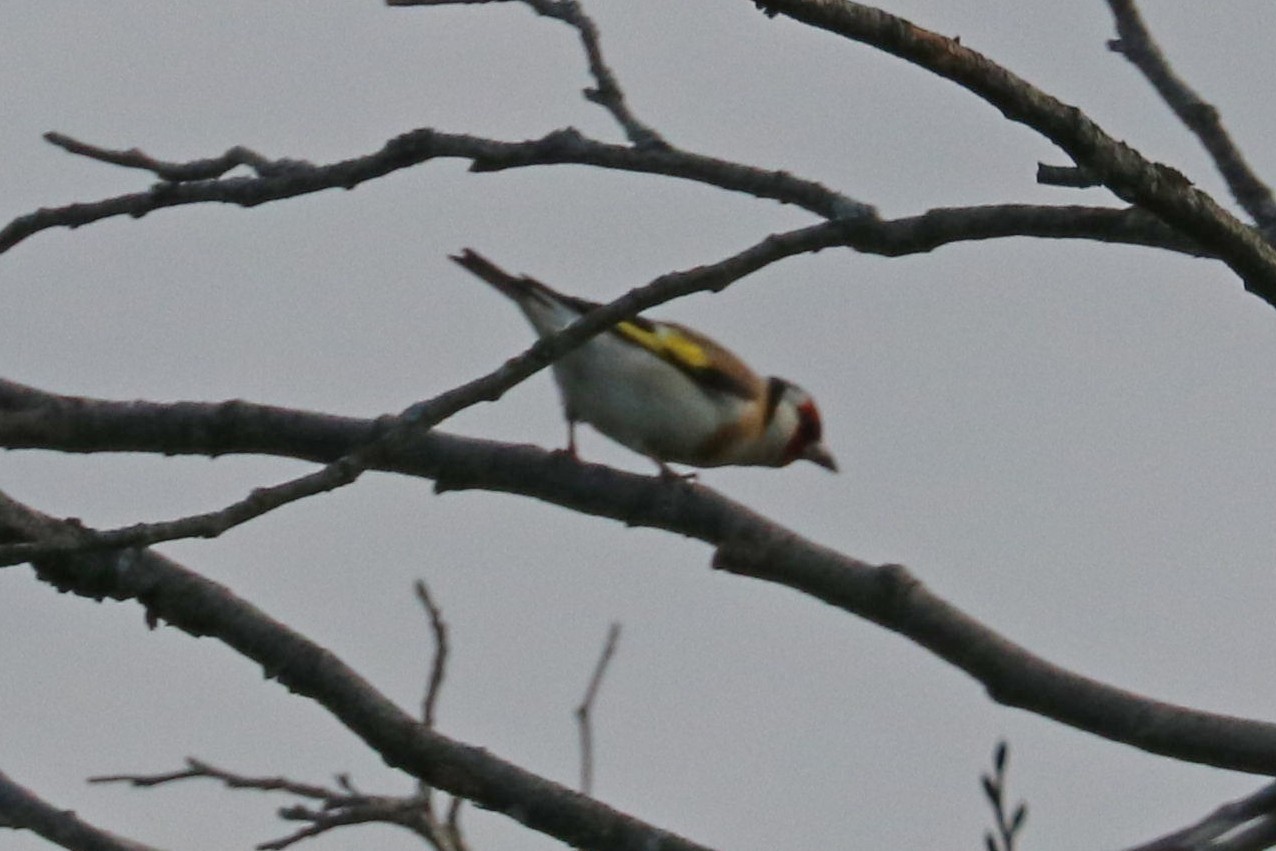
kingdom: Animalia
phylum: Chordata
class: Aves
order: Passeriformes
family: Fringillidae
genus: Carduelis
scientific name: Carduelis carduelis
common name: European goldfinch
